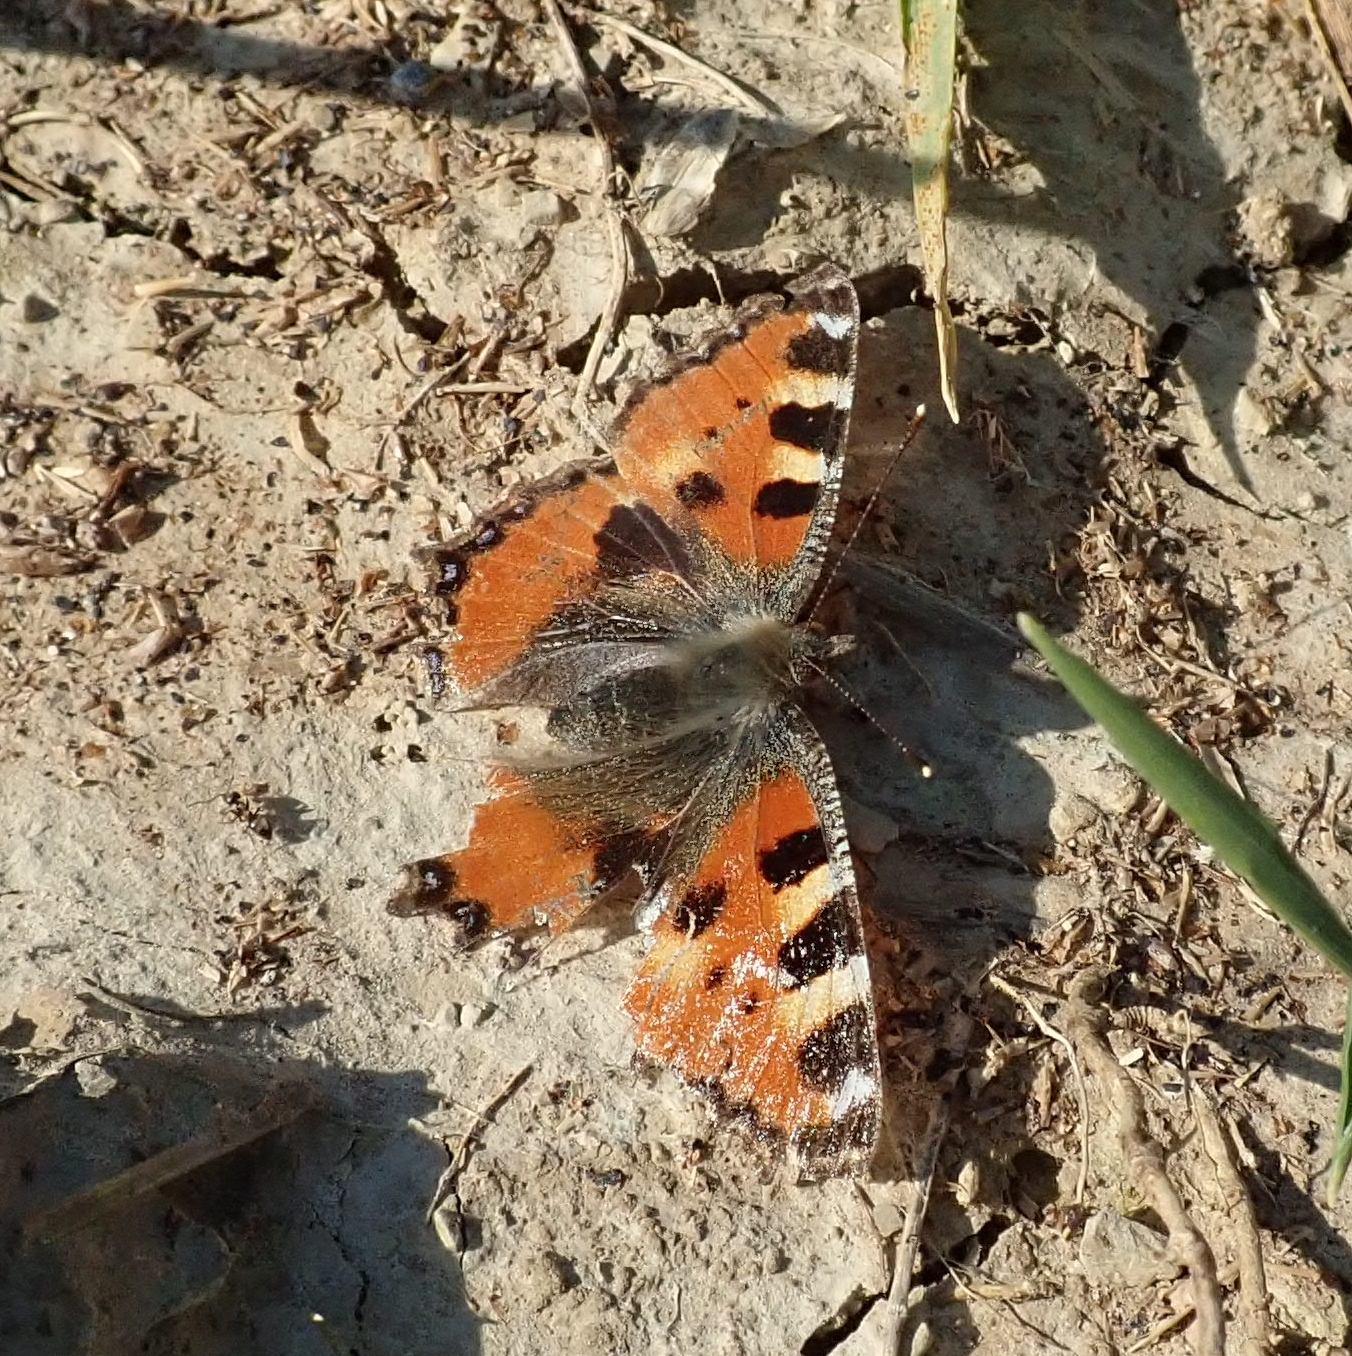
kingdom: Animalia
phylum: Arthropoda
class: Insecta
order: Lepidoptera
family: Nymphalidae
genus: Aglais
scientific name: Aglais urticae
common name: Small tortoiseshell
